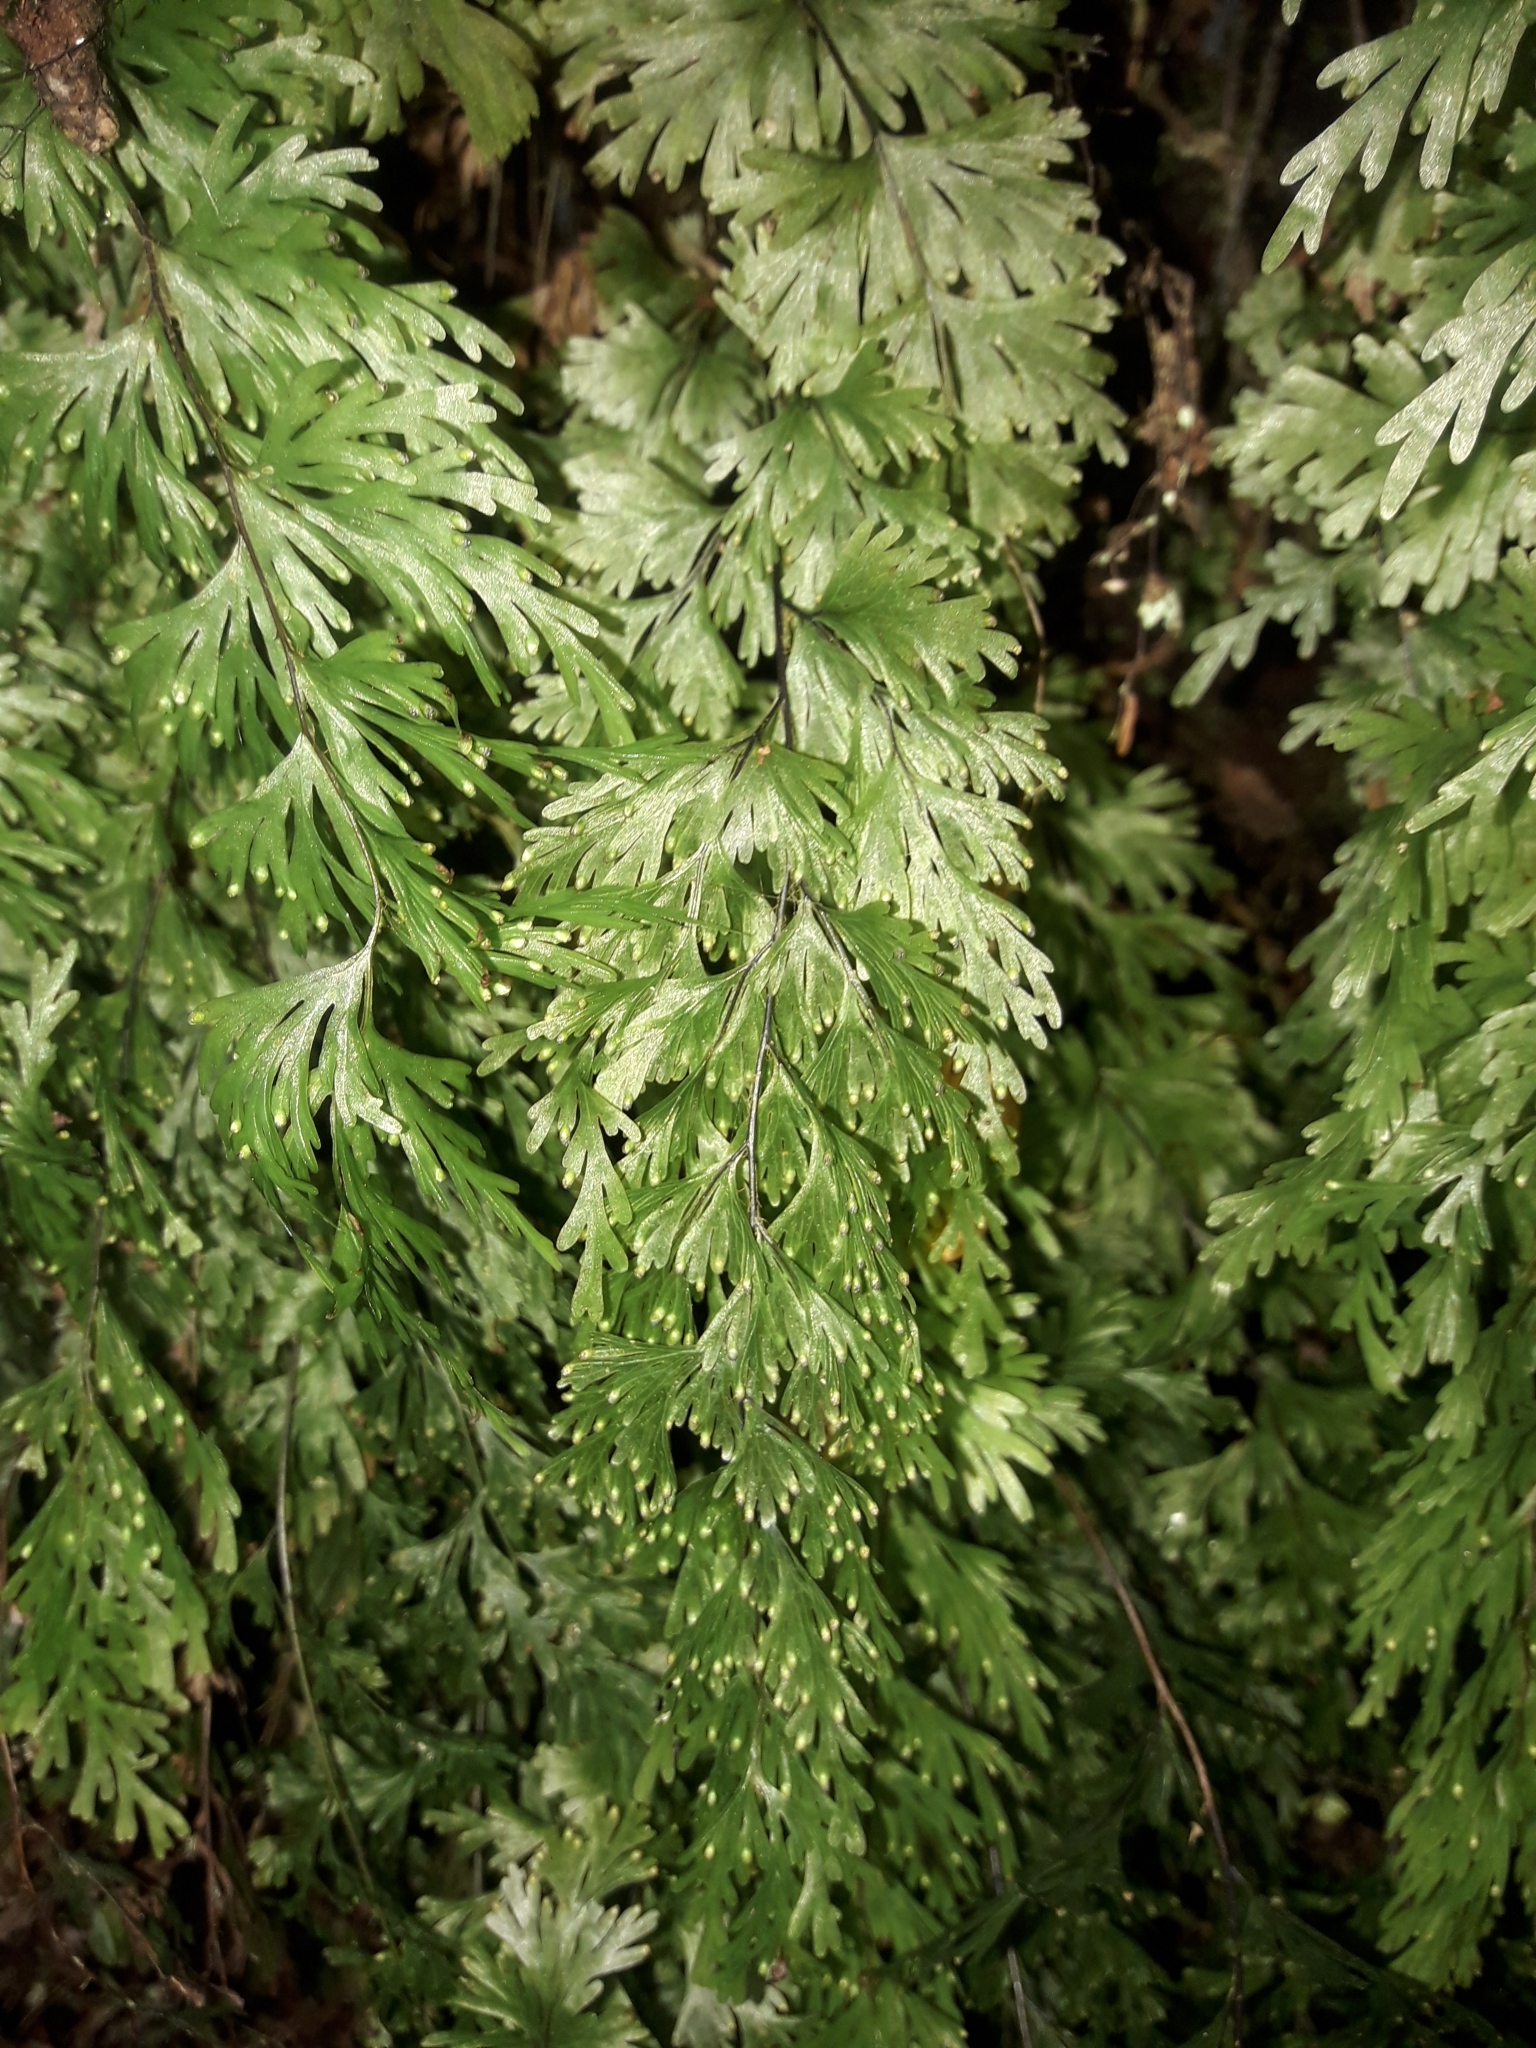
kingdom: Plantae
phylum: Tracheophyta
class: Polypodiopsida
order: Hymenophyllales
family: Hymenophyllaceae
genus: Hymenophyllum
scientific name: Hymenophyllum flabellatum
